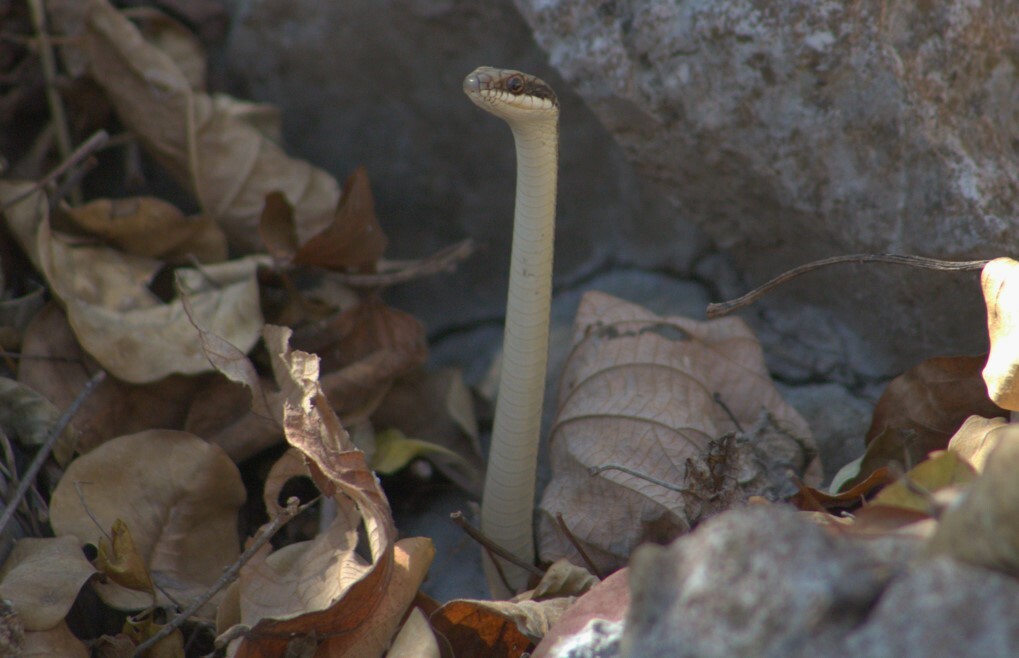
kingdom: Animalia
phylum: Chordata
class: Squamata
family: Colubridae
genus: Salvadora
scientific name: Salvadora lemniscata
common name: Pacific patchnose snake
